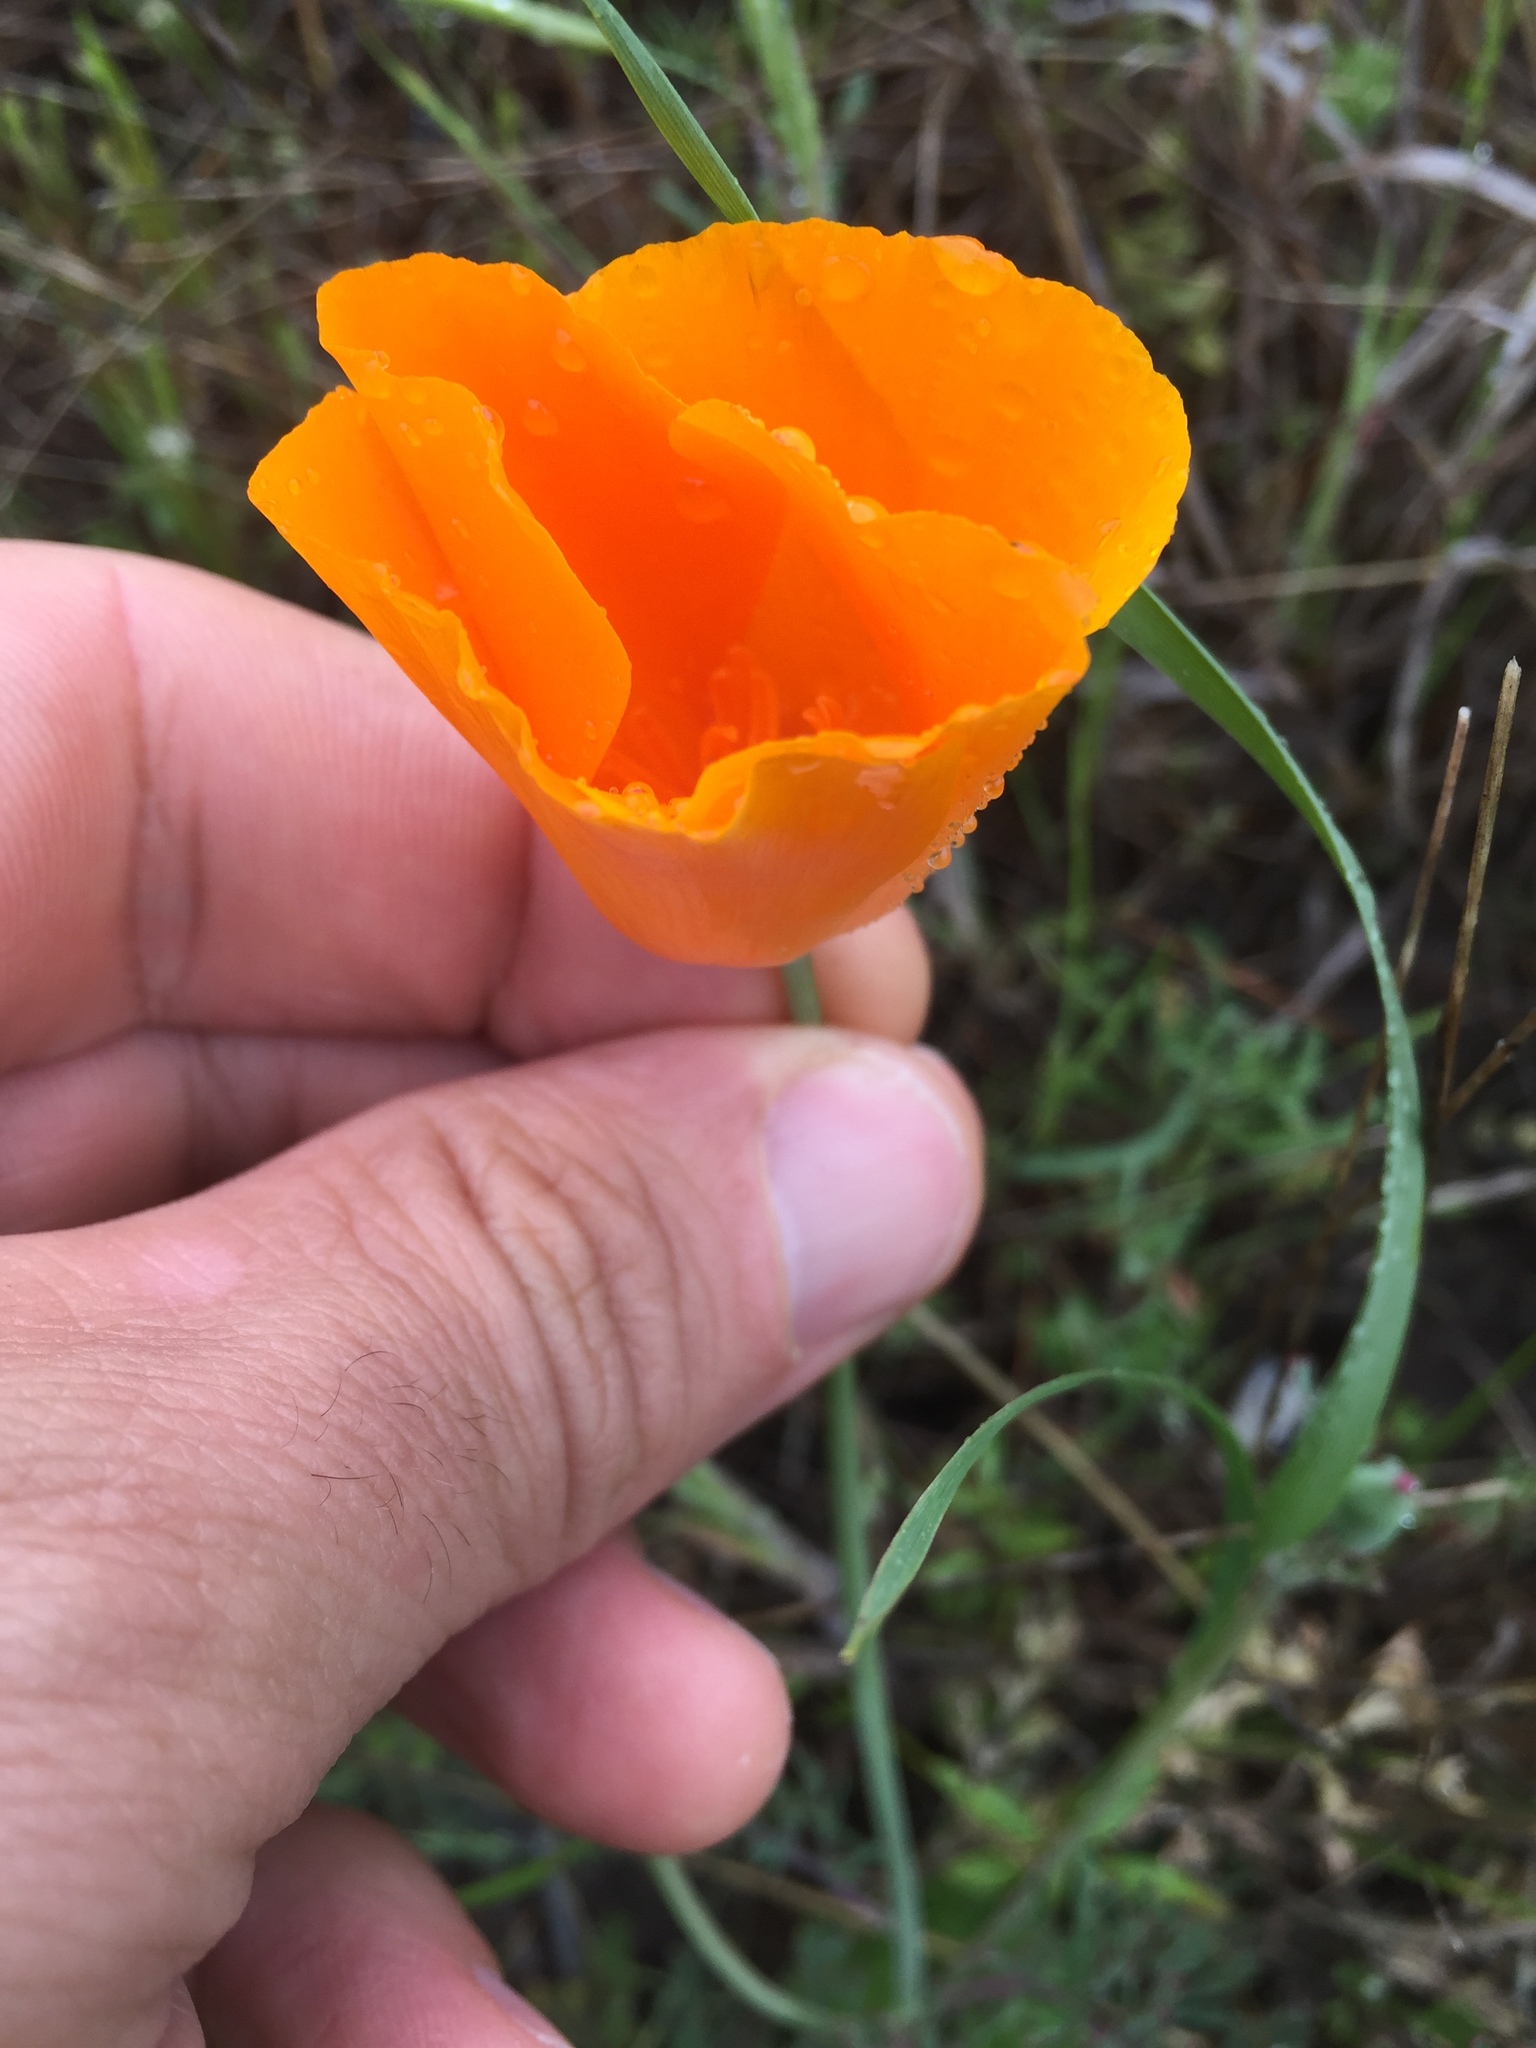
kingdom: Plantae
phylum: Tracheophyta
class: Magnoliopsida
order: Ranunculales
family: Papaveraceae
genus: Eschscholzia
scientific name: Eschscholzia californica
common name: California poppy
